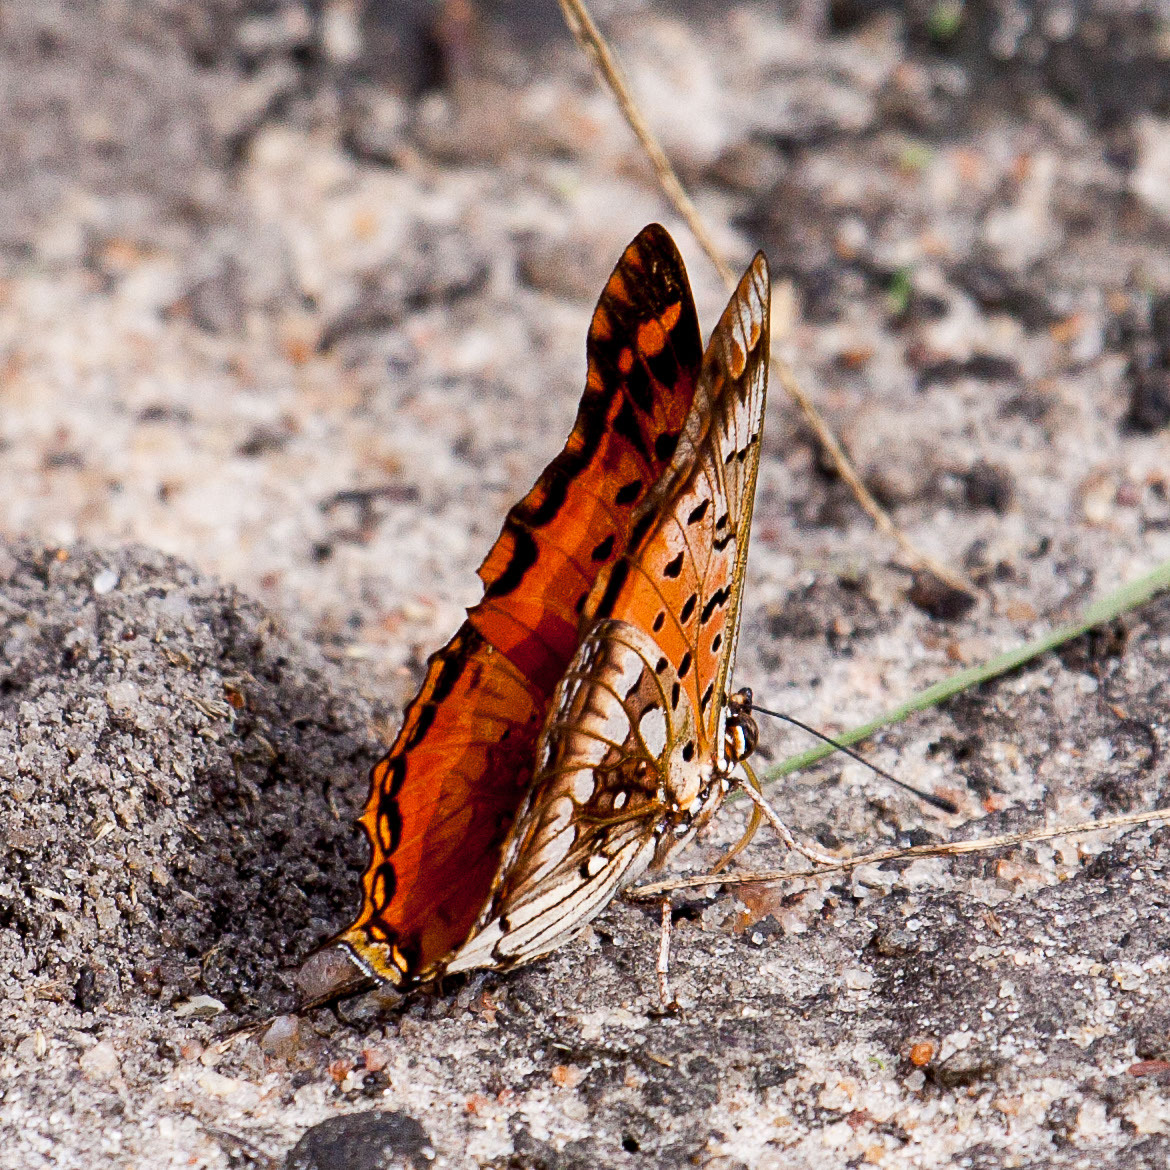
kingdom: Animalia
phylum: Arthropoda
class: Insecta
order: Lepidoptera
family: Nymphalidae
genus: Charaxes
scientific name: Charaxes jahlusa
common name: Pearl-spotted charaxes
